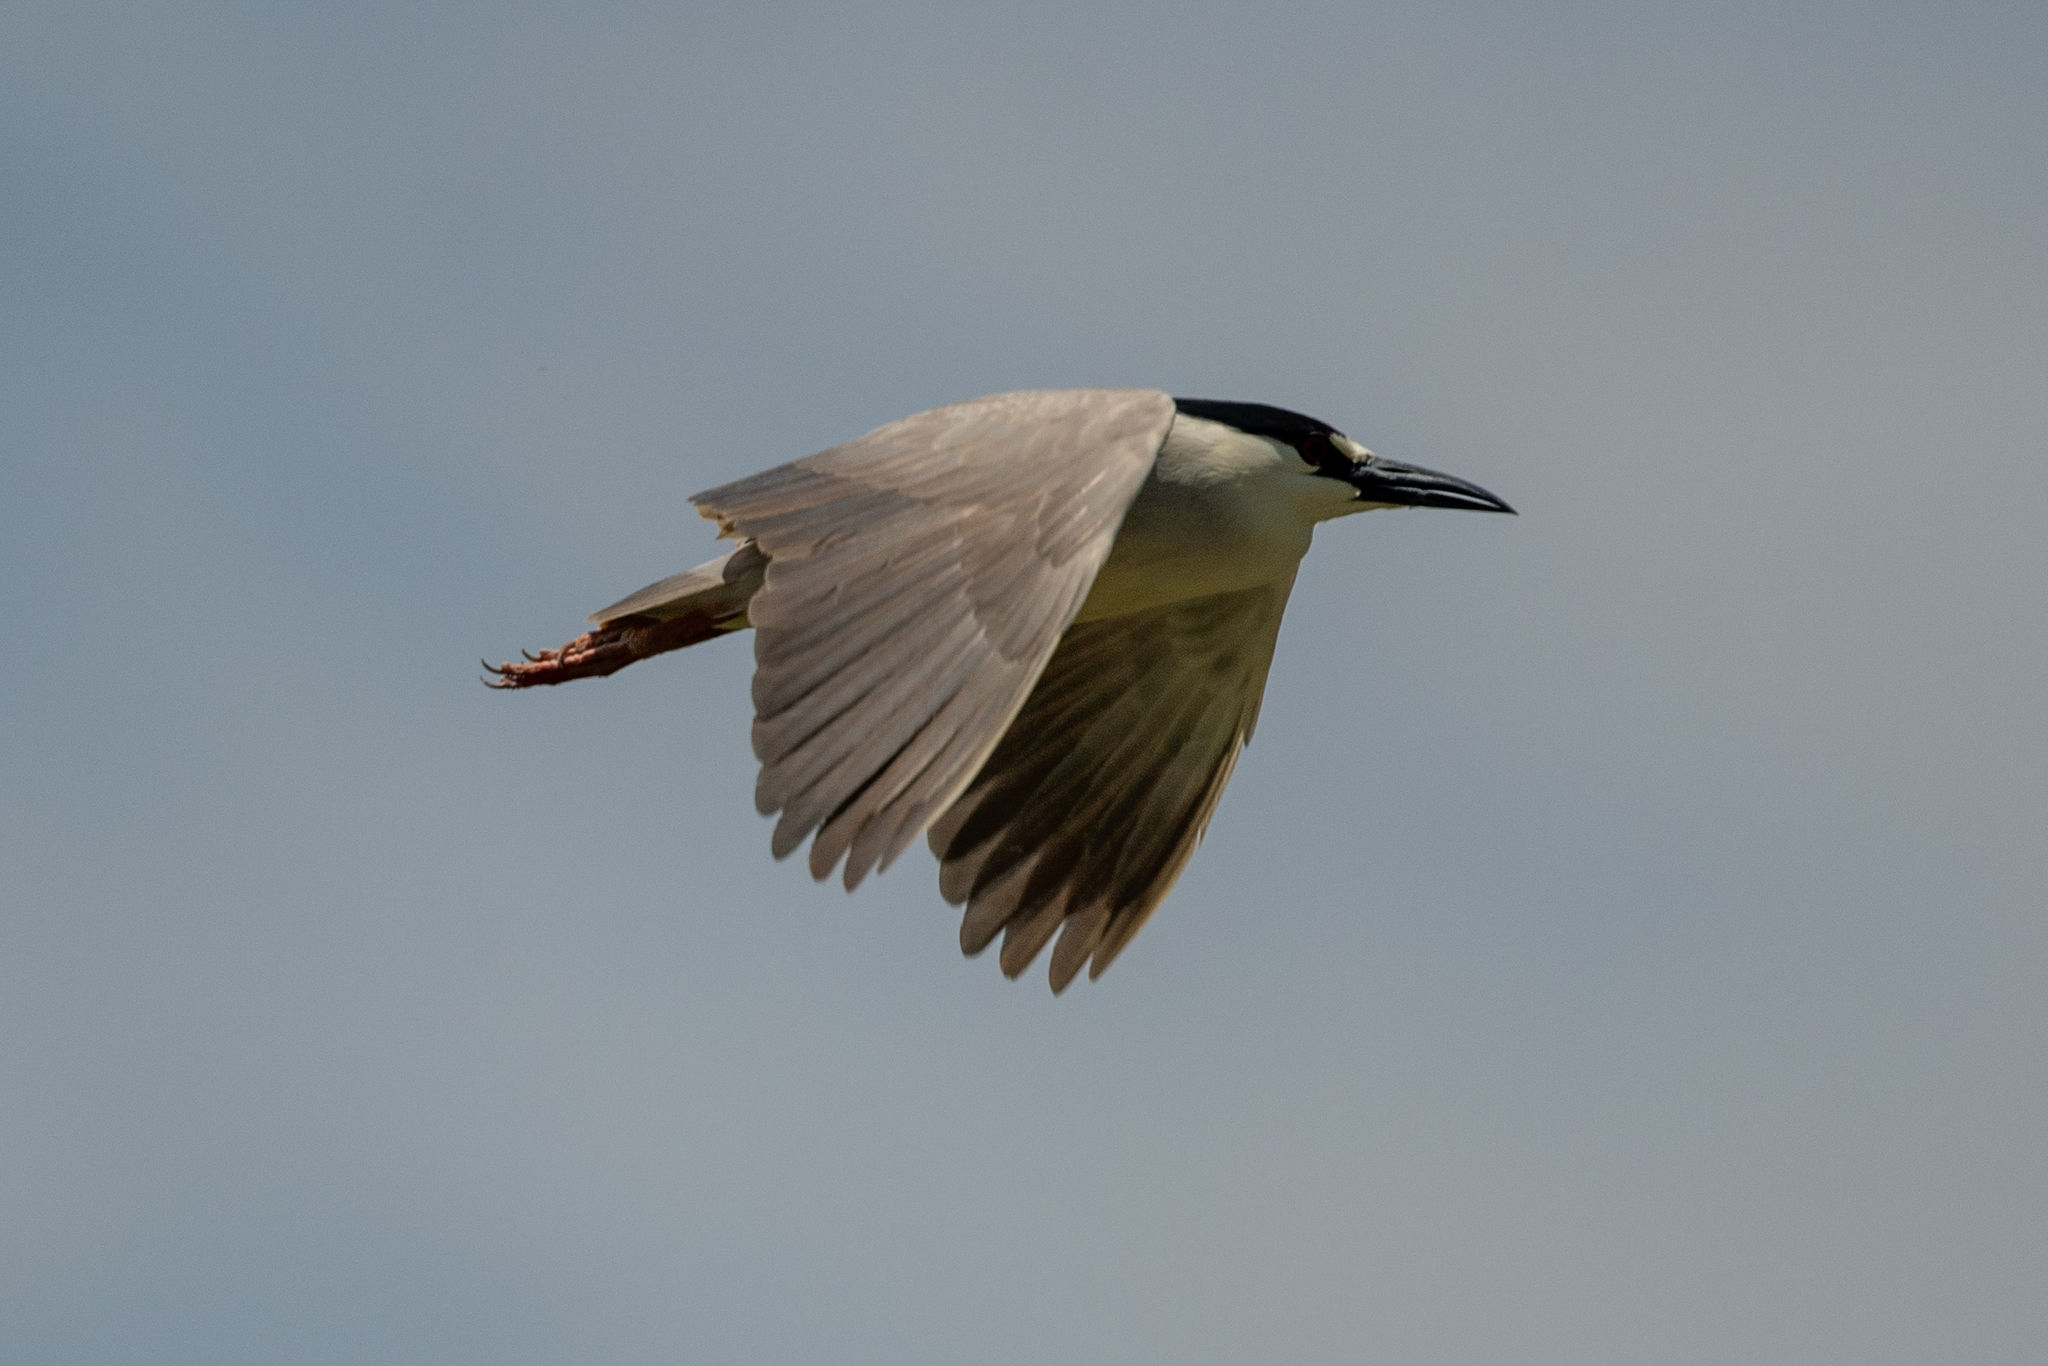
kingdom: Animalia
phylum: Chordata
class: Aves
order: Pelecaniformes
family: Ardeidae
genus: Nycticorax
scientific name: Nycticorax nycticorax
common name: Black-crowned night heron
